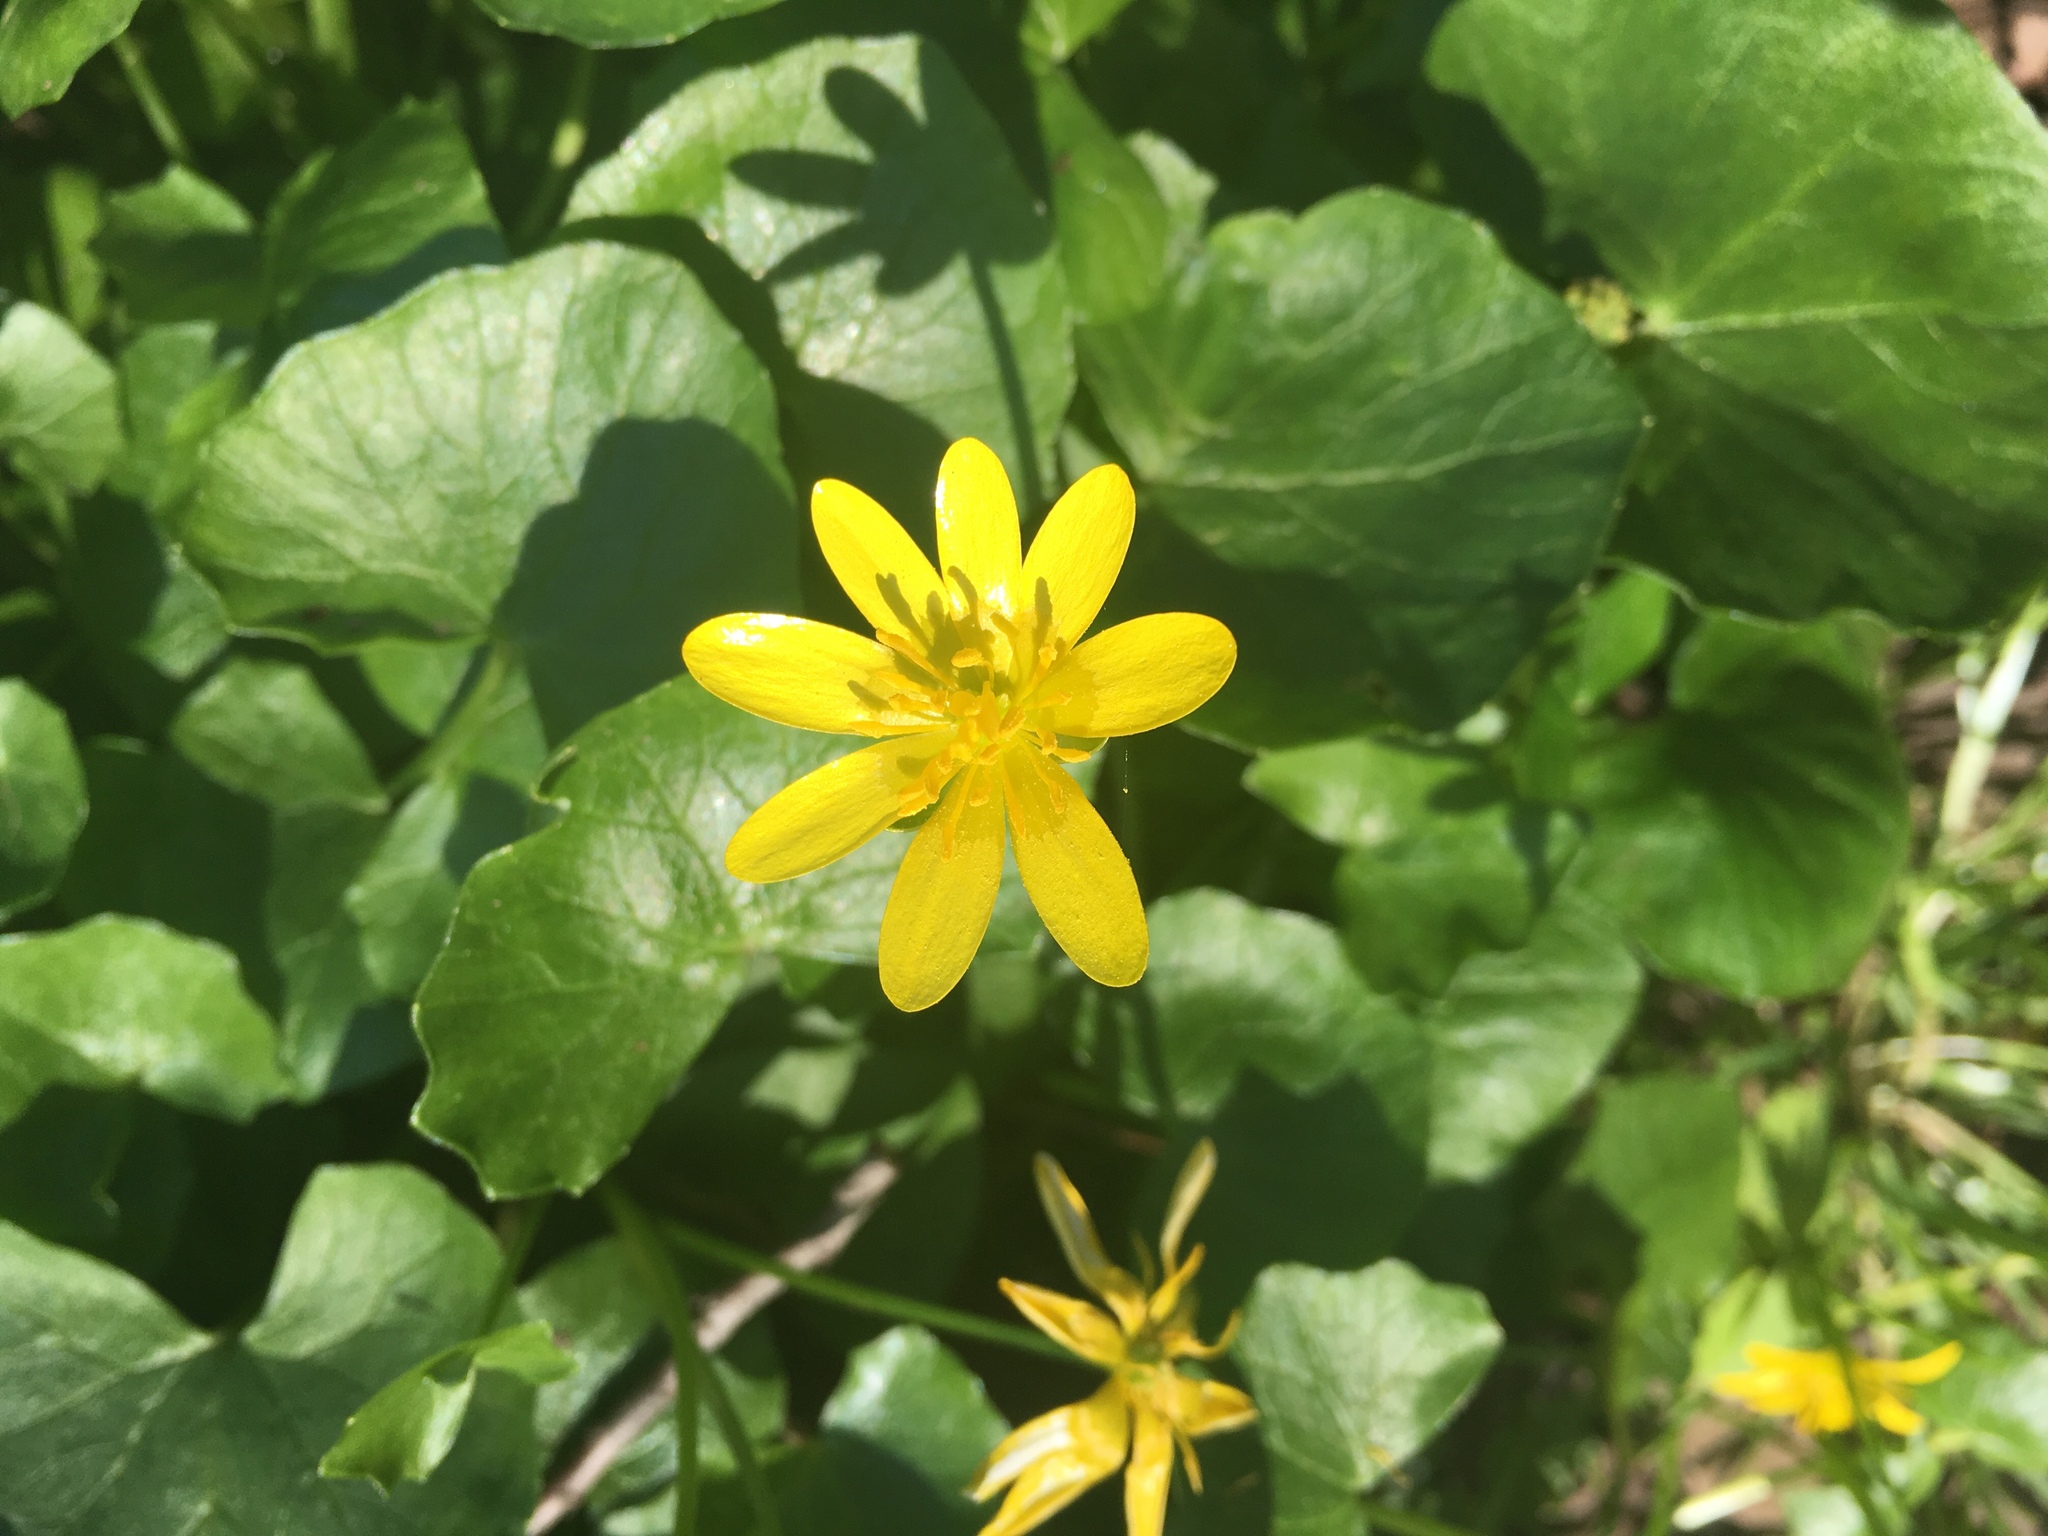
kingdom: Plantae
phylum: Tracheophyta
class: Magnoliopsida
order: Ranunculales
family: Ranunculaceae
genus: Ficaria
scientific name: Ficaria verna
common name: Lesser celandine
